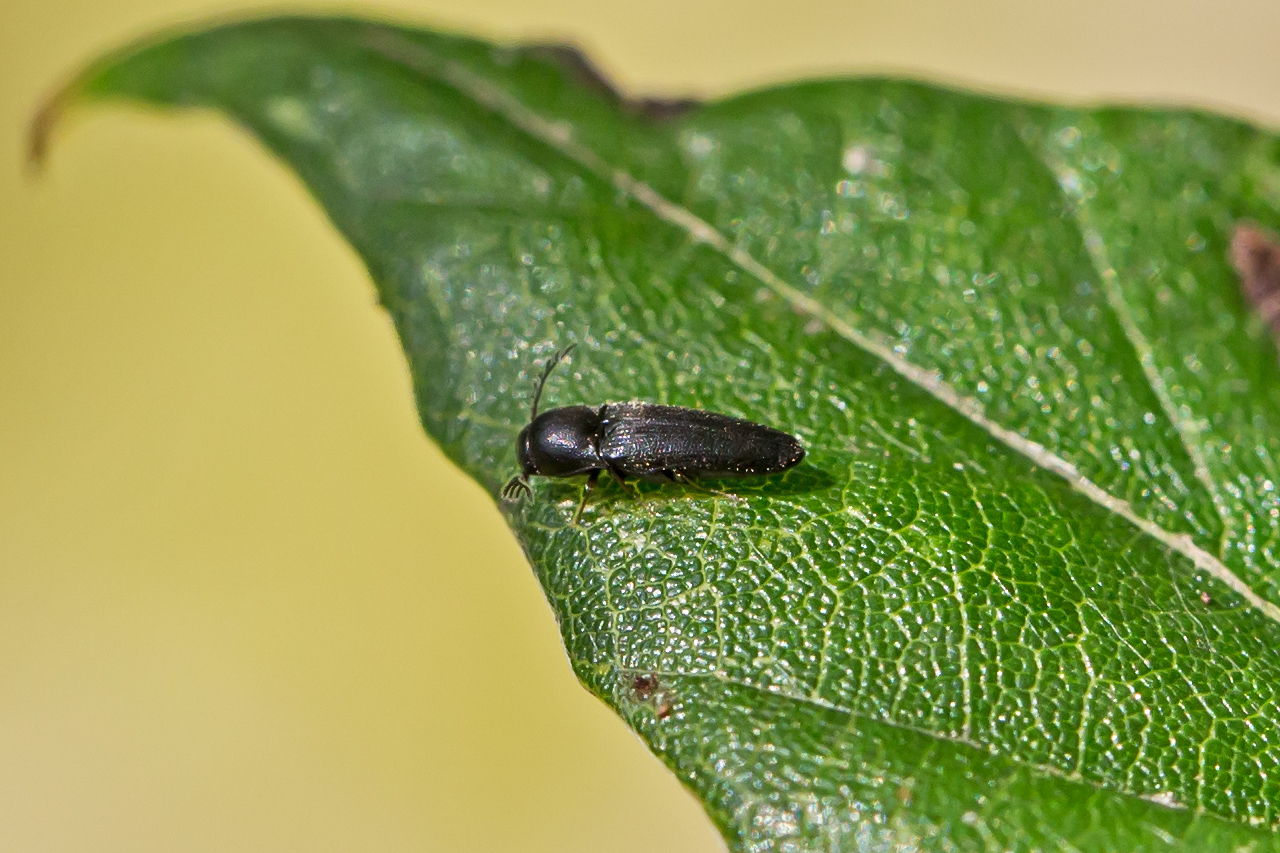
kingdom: Animalia
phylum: Arthropoda
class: Insecta
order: Coleoptera
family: Eucnemidae
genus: Deltometopus
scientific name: Deltometopus amoenicornis
